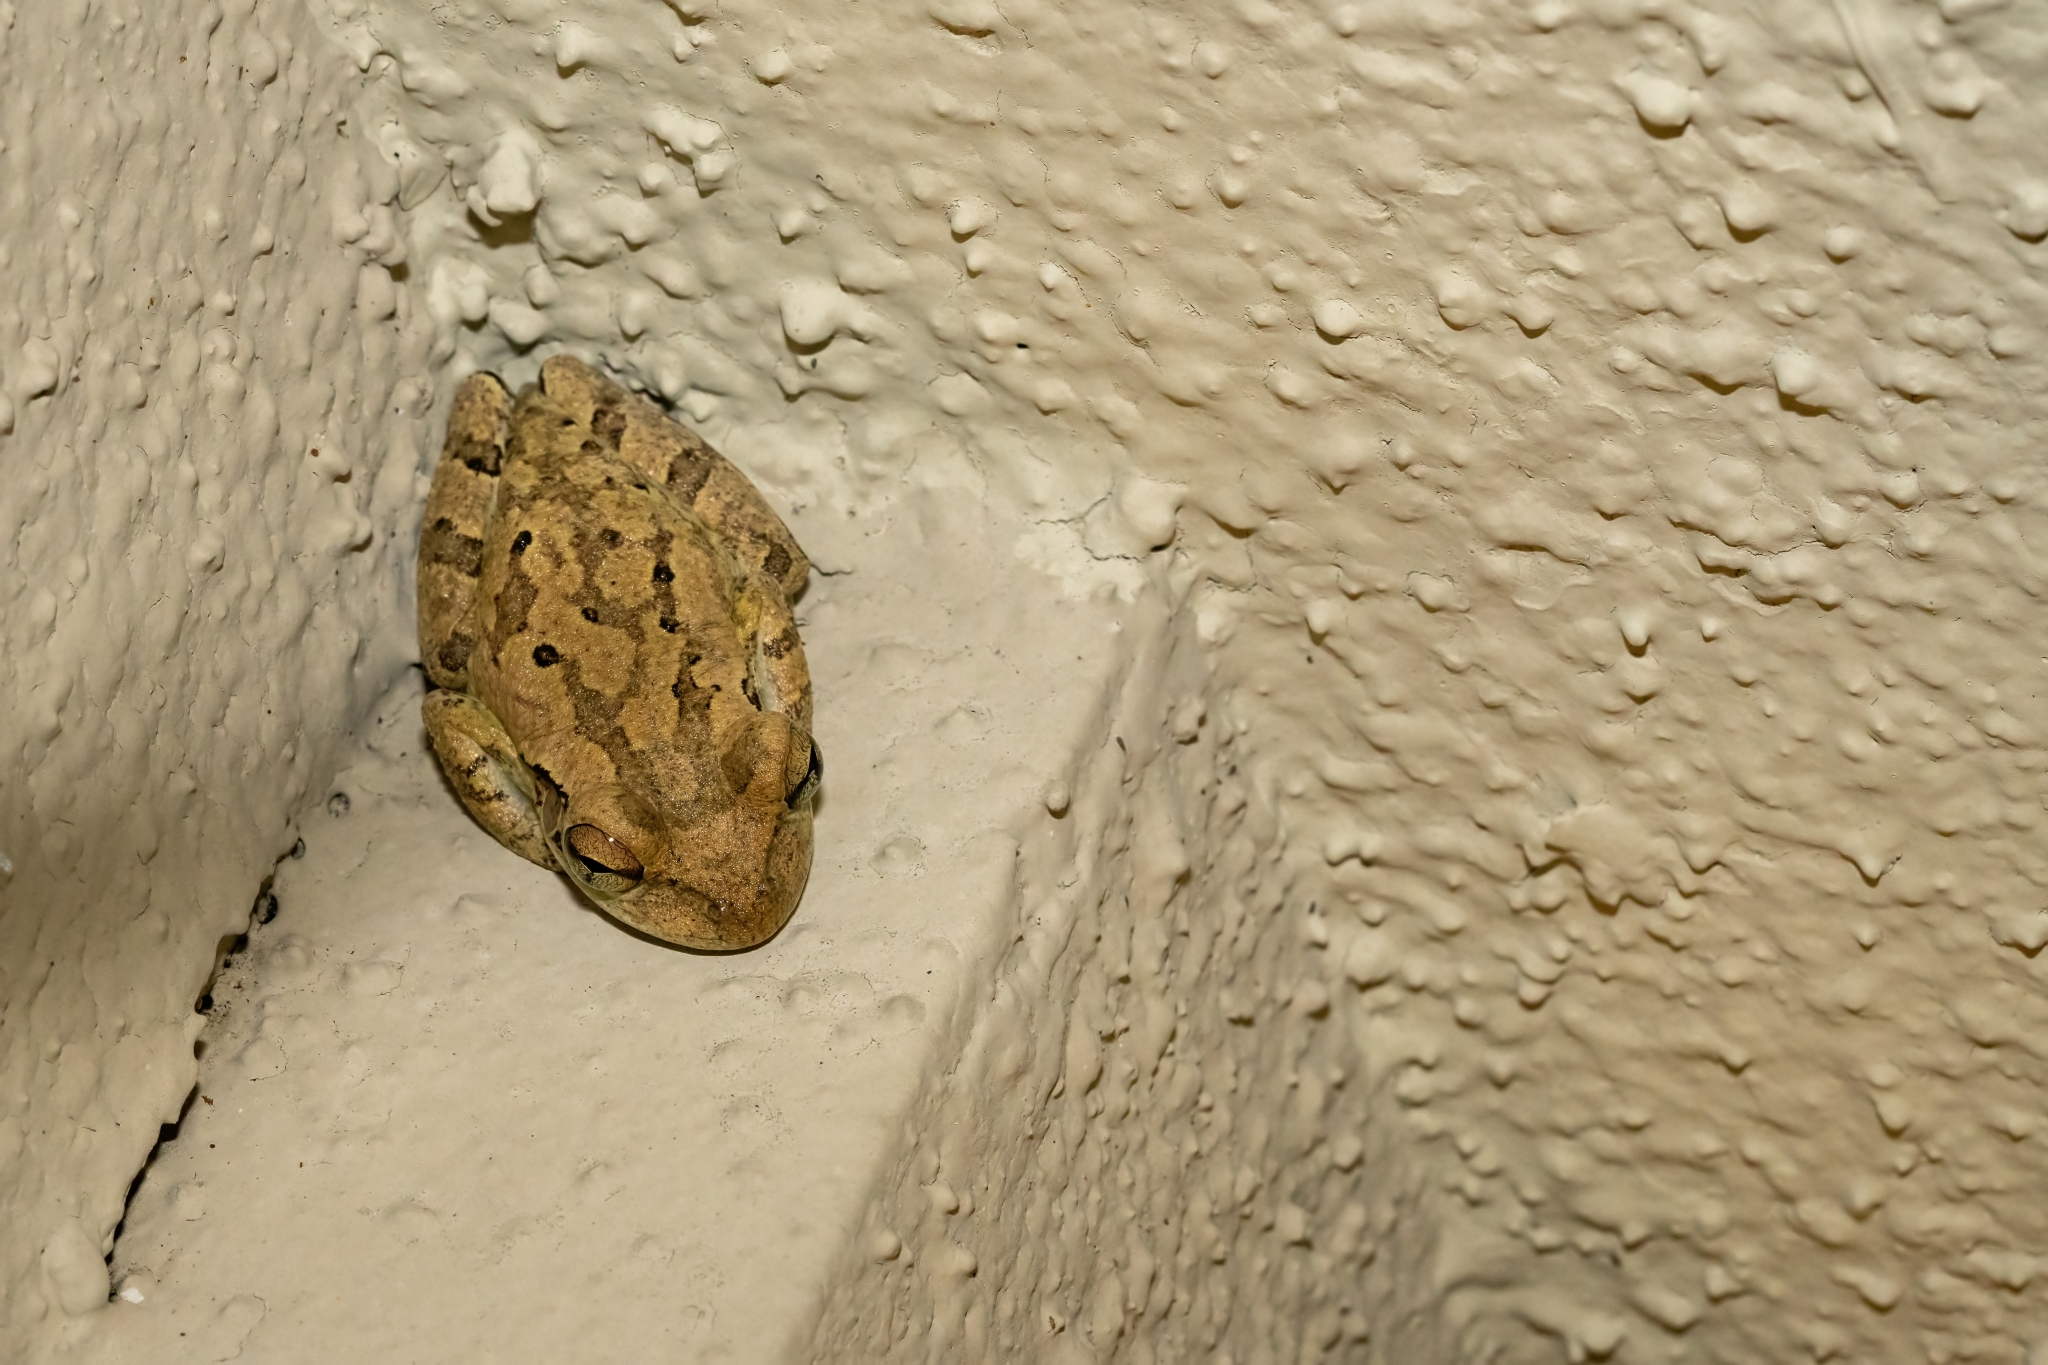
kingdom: Animalia
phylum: Chordata
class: Amphibia
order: Anura
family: Hylidae
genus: Osteopilus
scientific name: Osteopilus septentrionalis
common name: Cuban treefrog
